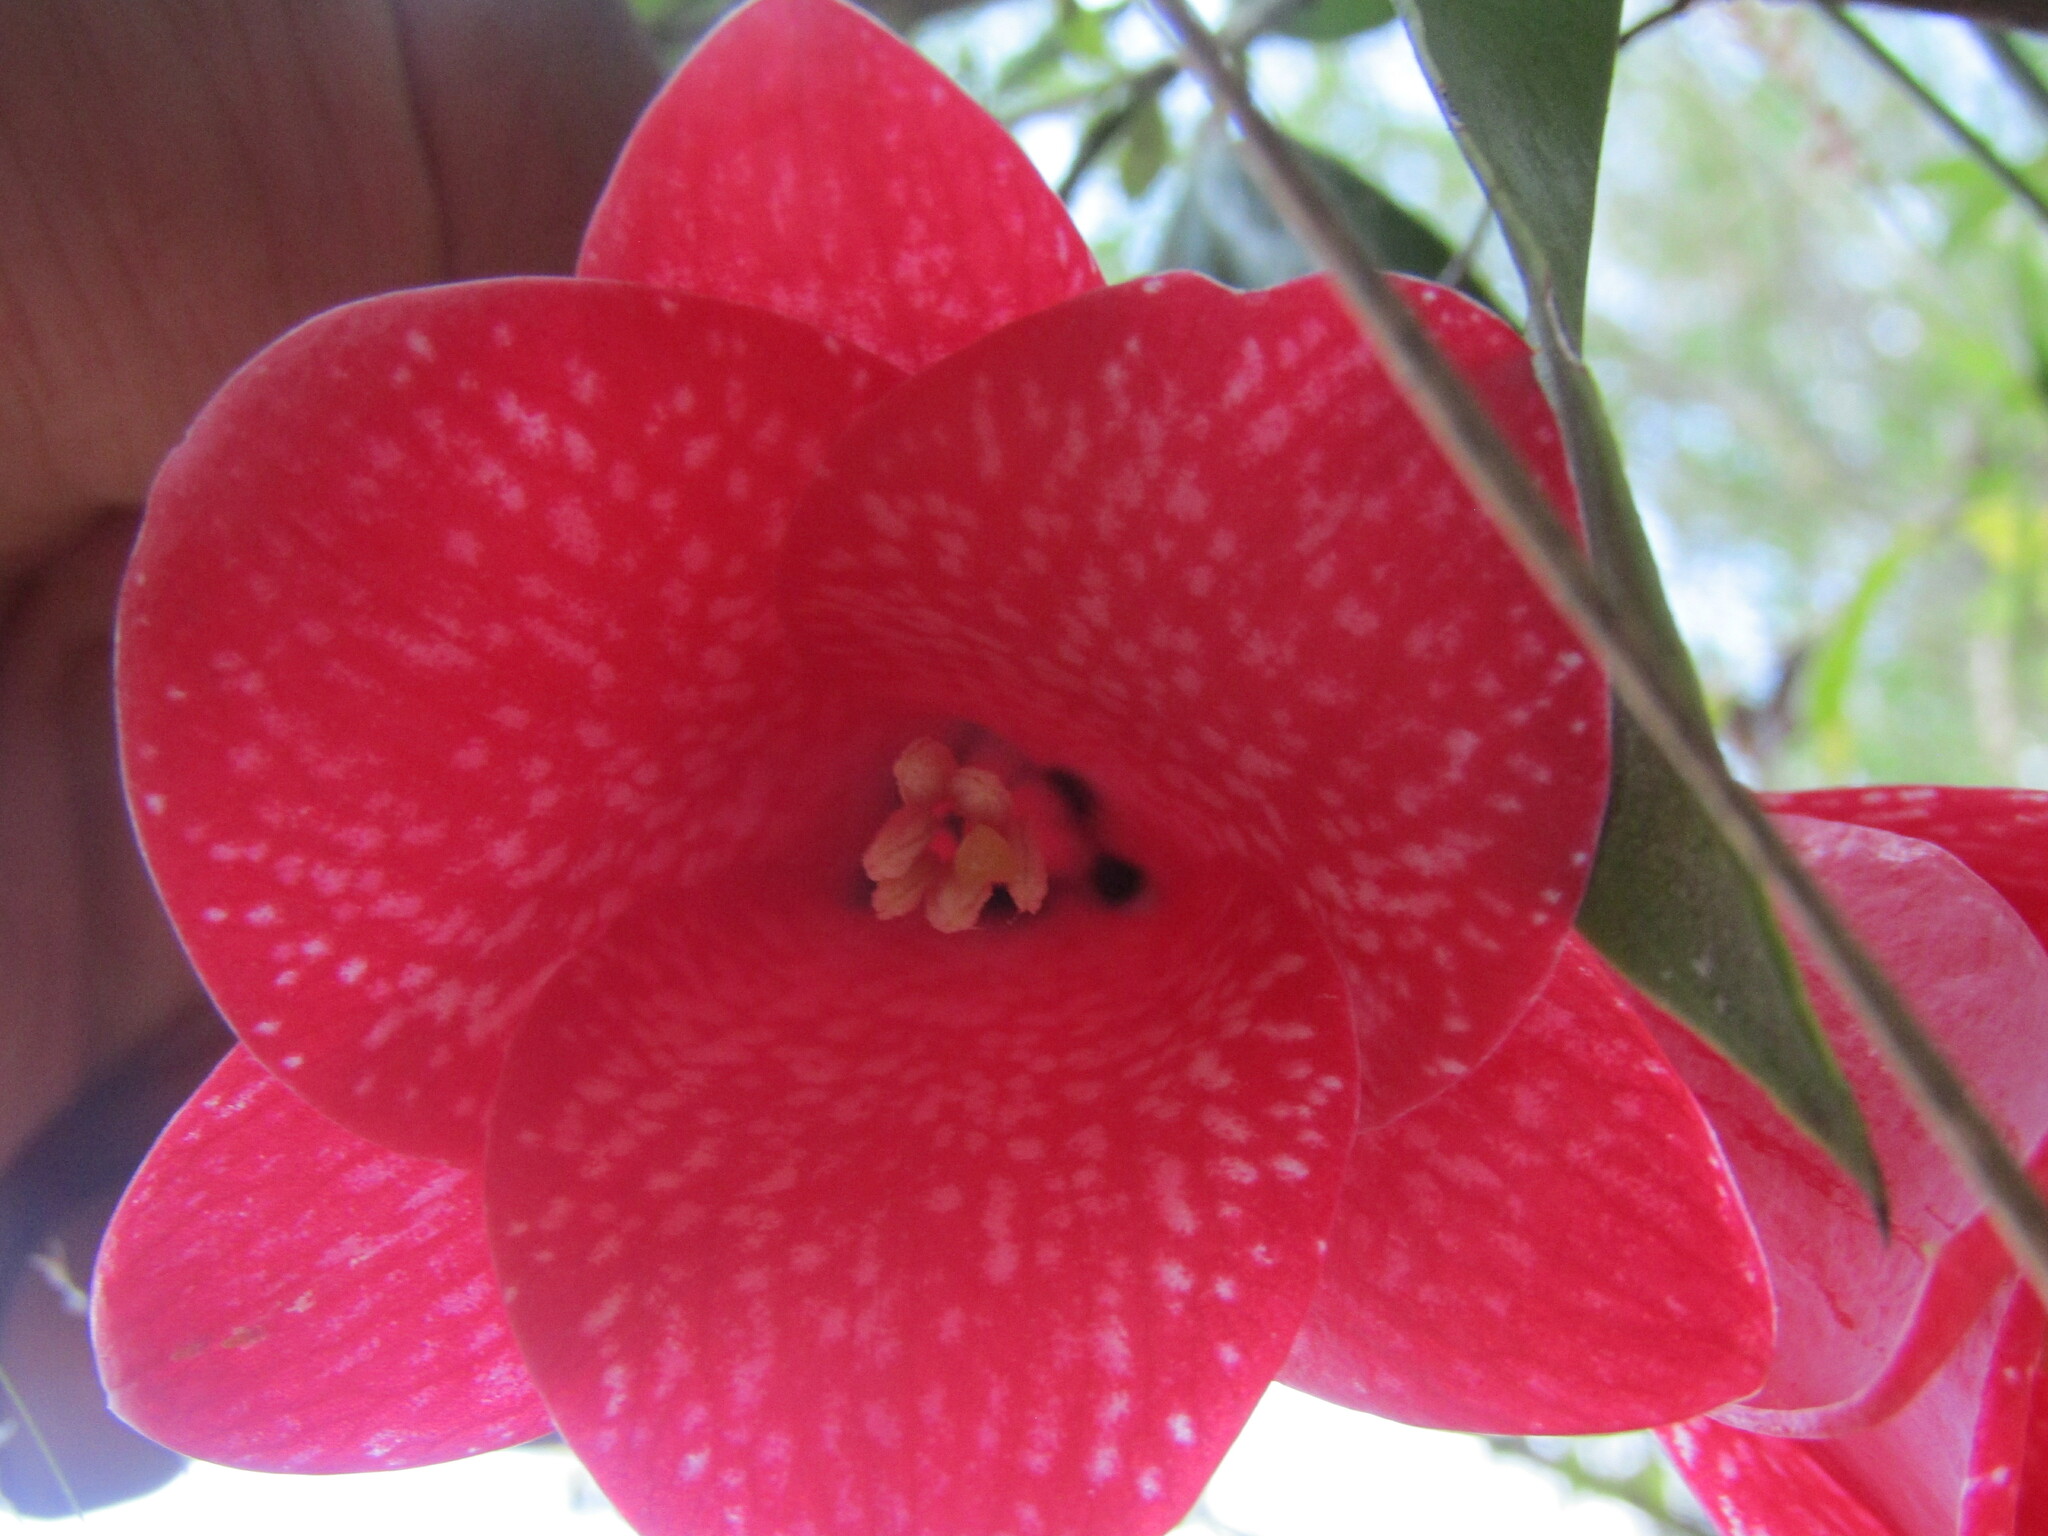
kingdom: Plantae
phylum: Tracheophyta
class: Liliopsida
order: Liliales
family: Philesiaceae
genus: Lapageria
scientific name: Lapageria rosea
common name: Chilean-bellflower
